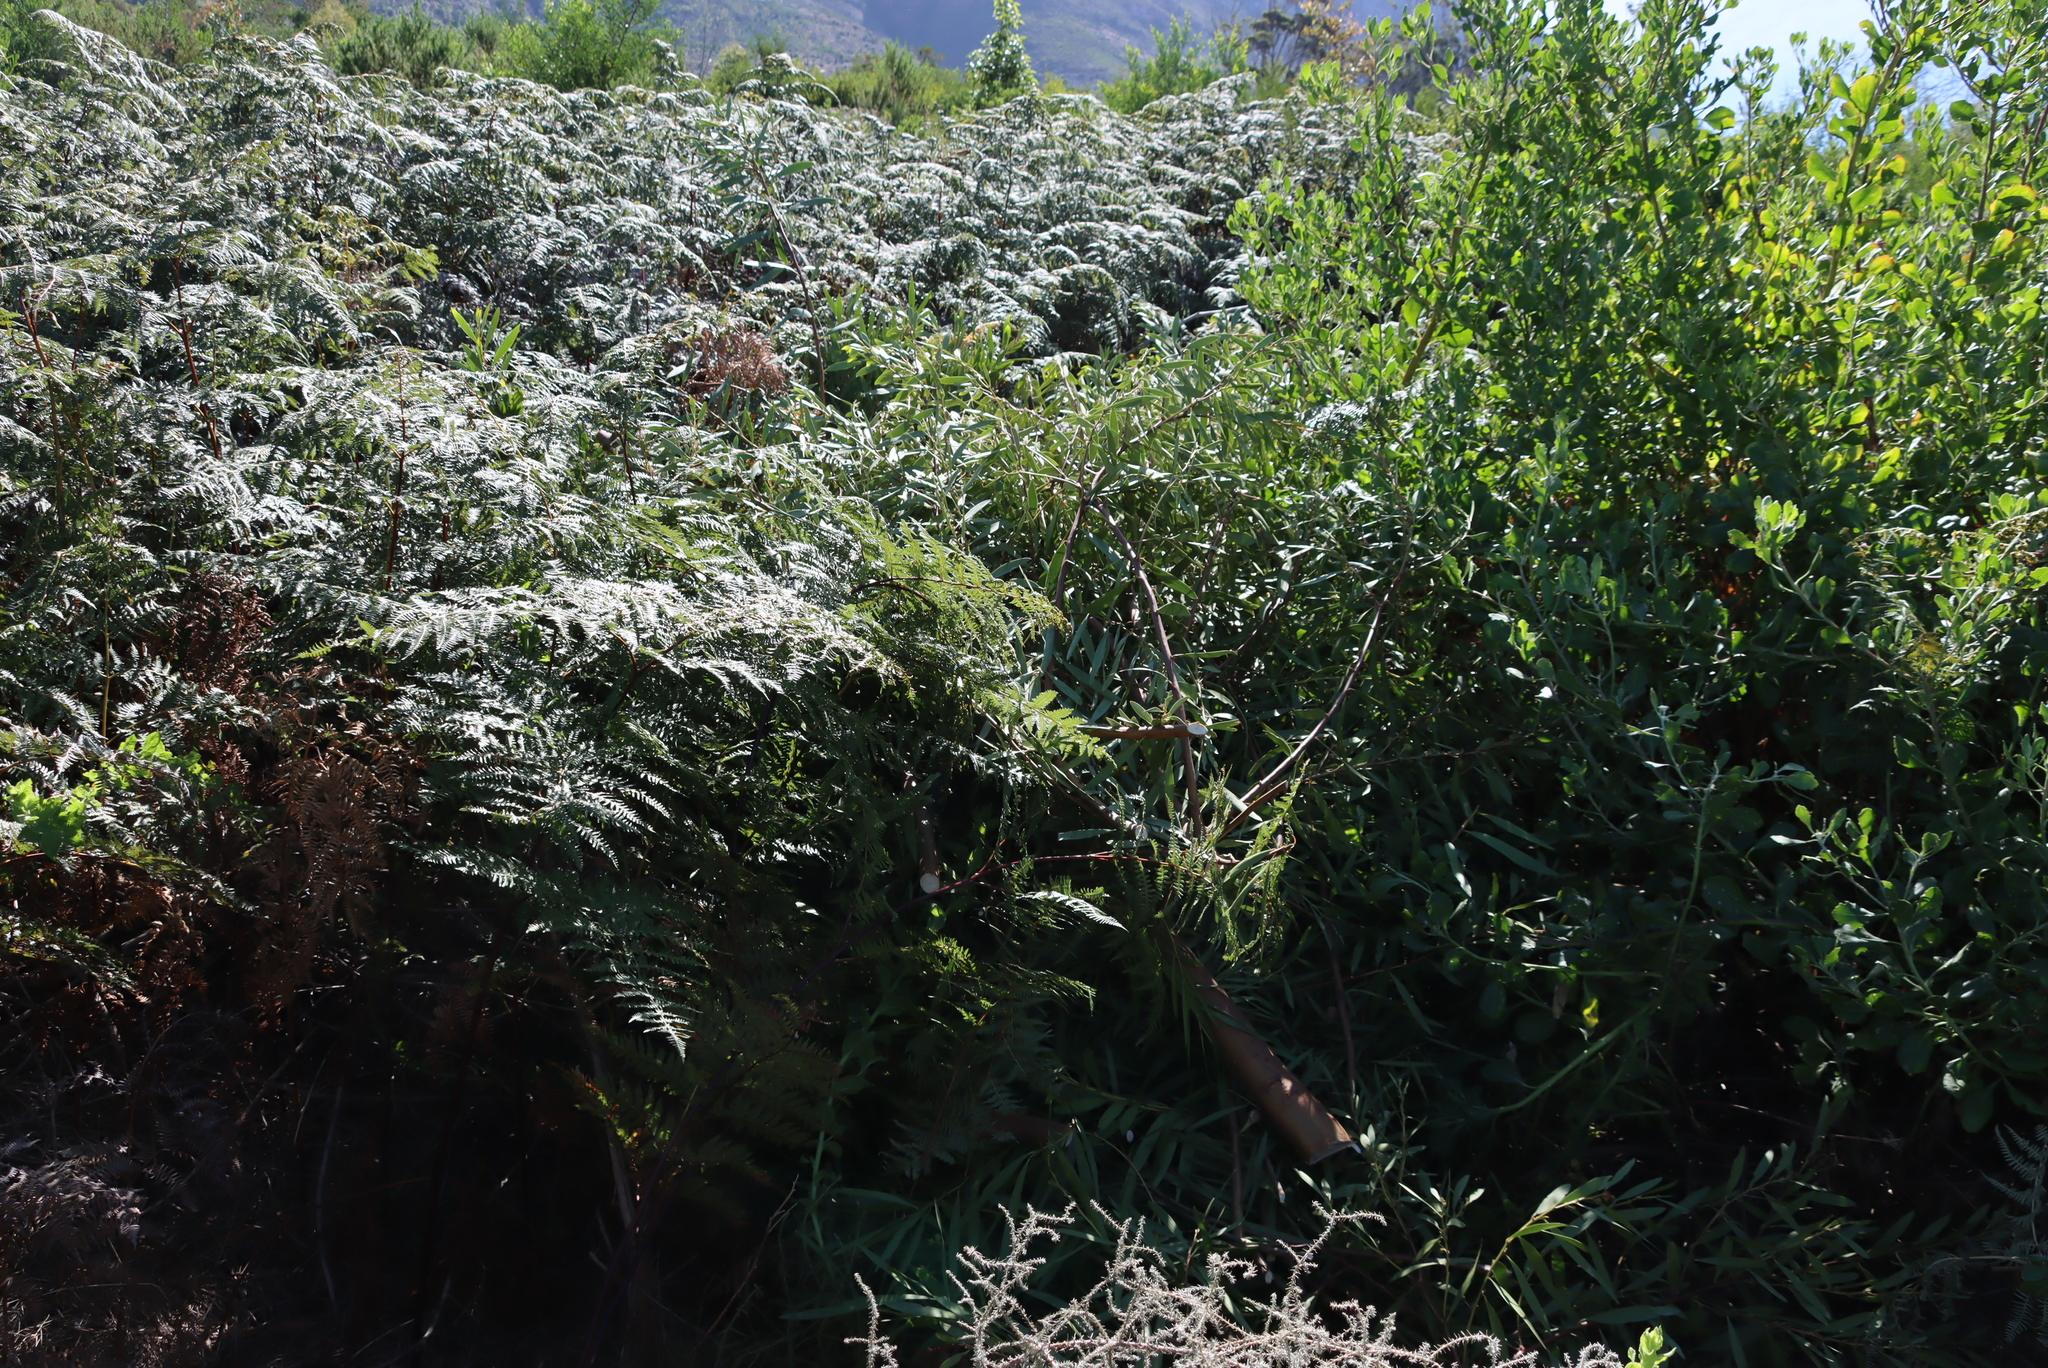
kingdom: Plantae
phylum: Tracheophyta
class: Polypodiopsida
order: Polypodiales
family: Dennstaedtiaceae
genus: Pteridium
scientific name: Pteridium aquilinum
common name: Bracken
